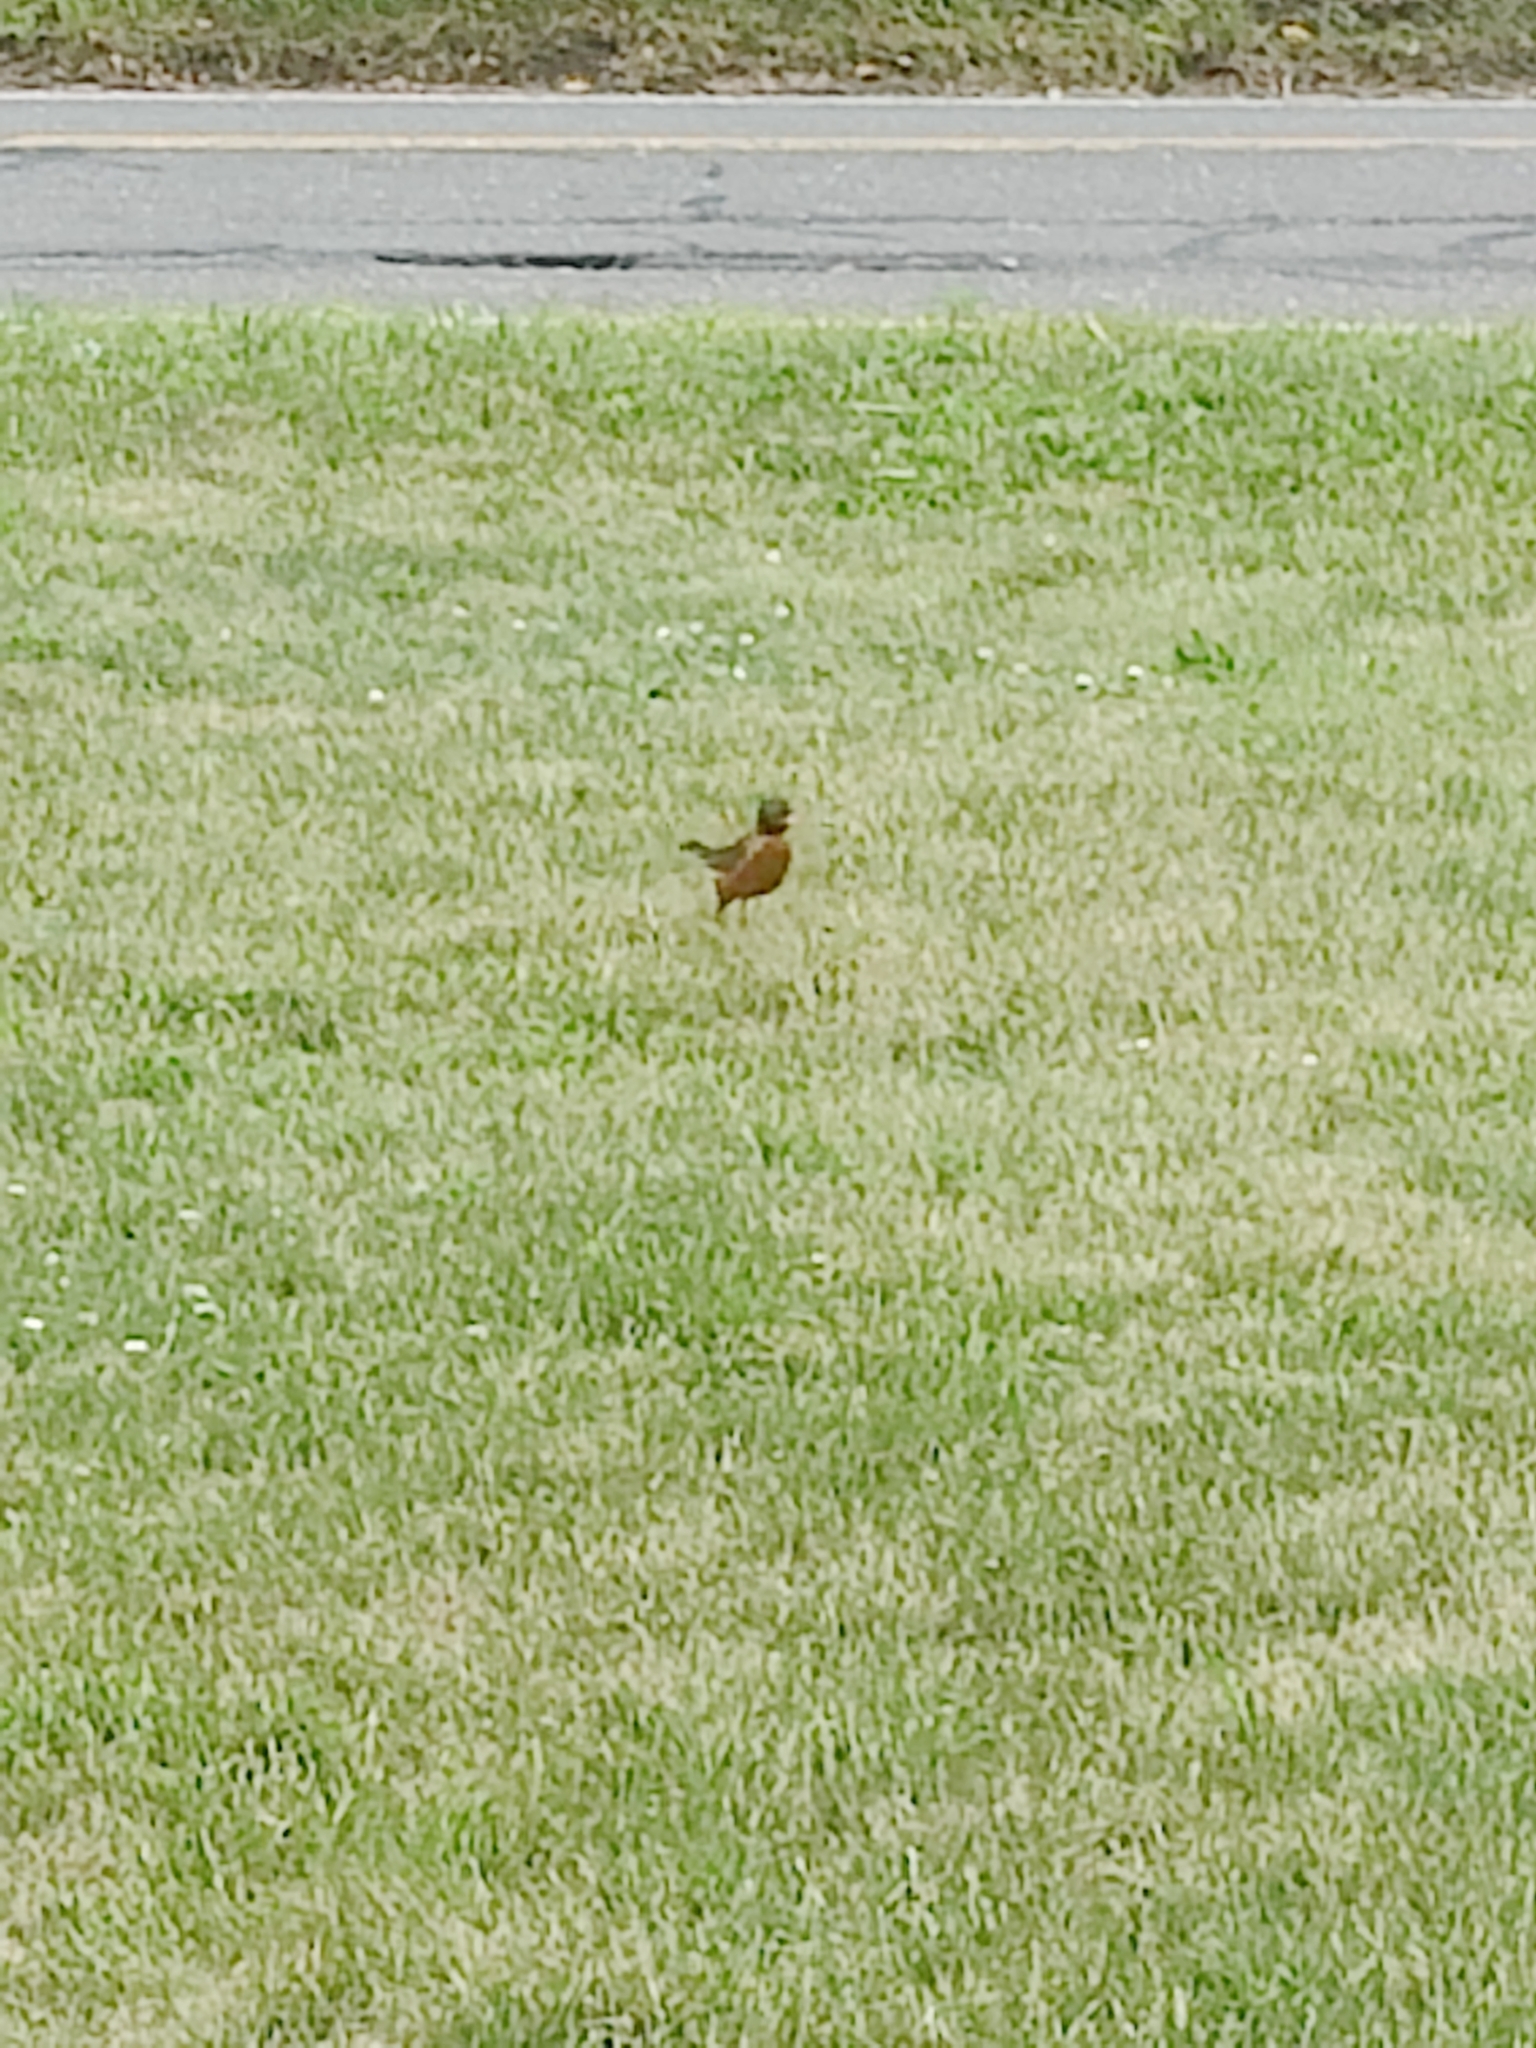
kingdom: Animalia
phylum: Chordata
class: Aves
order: Passeriformes
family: Turdidae
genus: Turdus
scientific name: Turdus migratorius
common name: American robin
